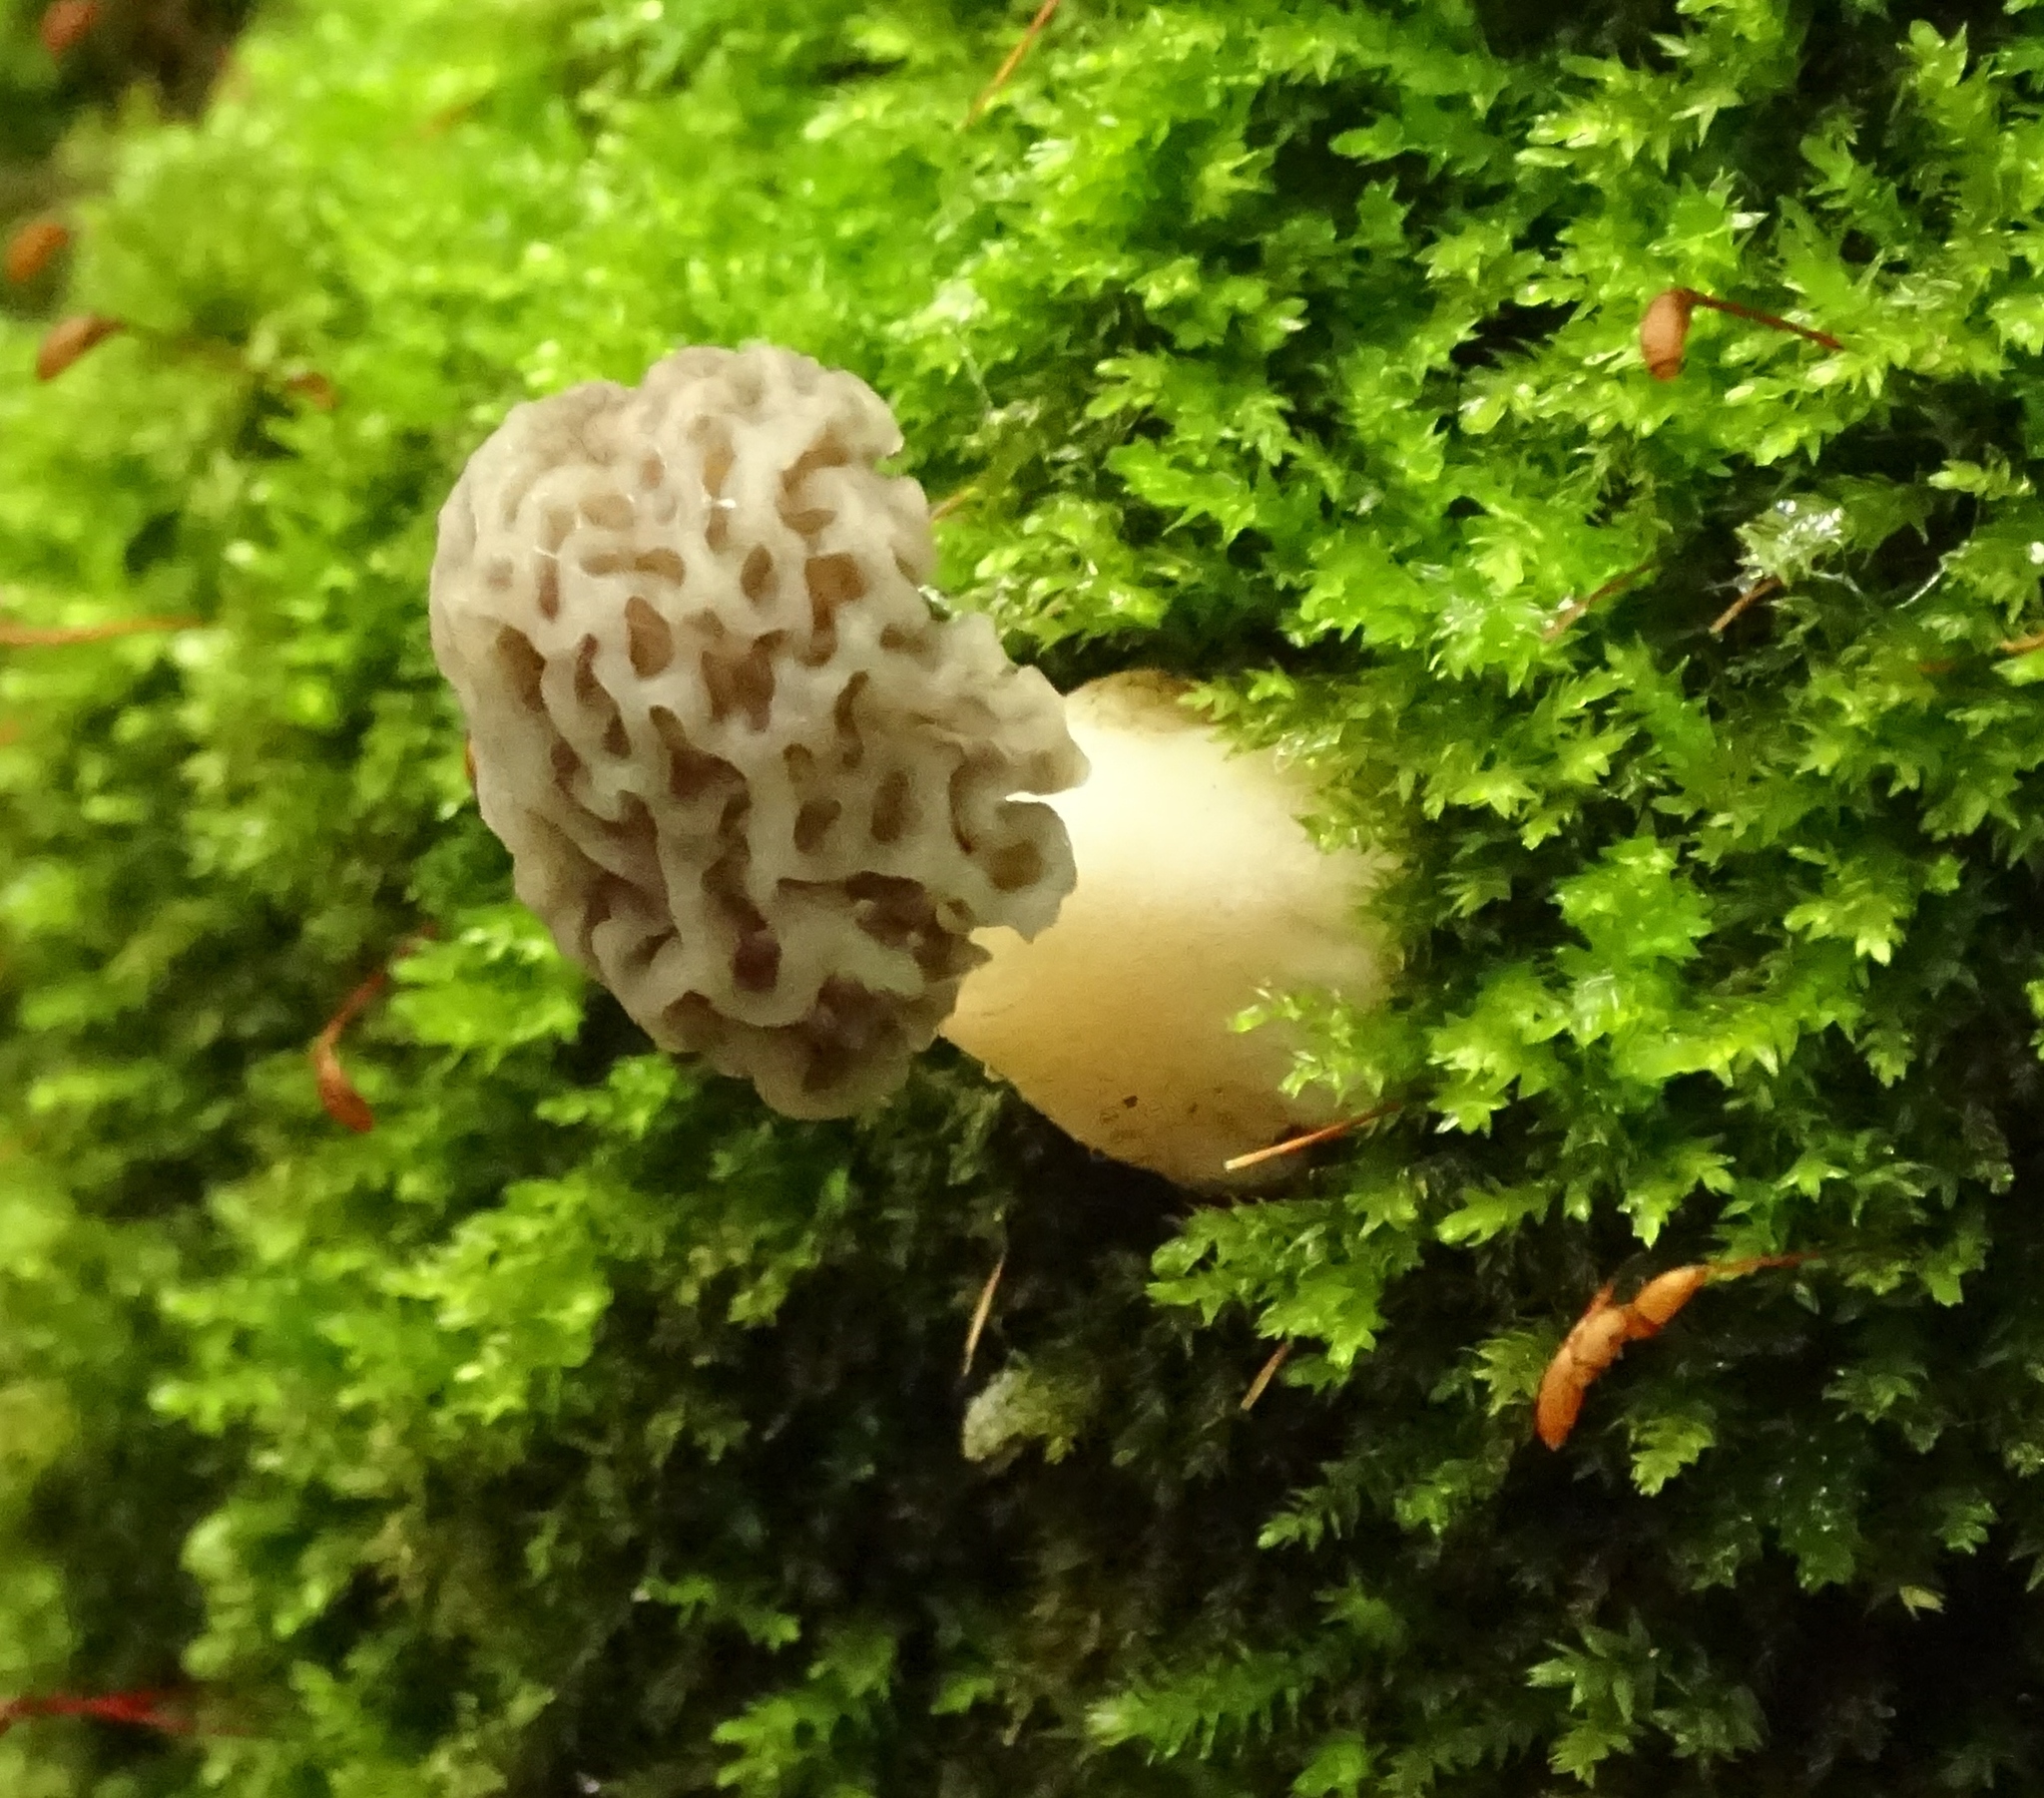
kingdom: Fungi
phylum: Ascomycota
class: Pezizomycetes
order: Pezizales
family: Morchellaceae
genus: Morchella
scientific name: Morchella americana
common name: White morel
